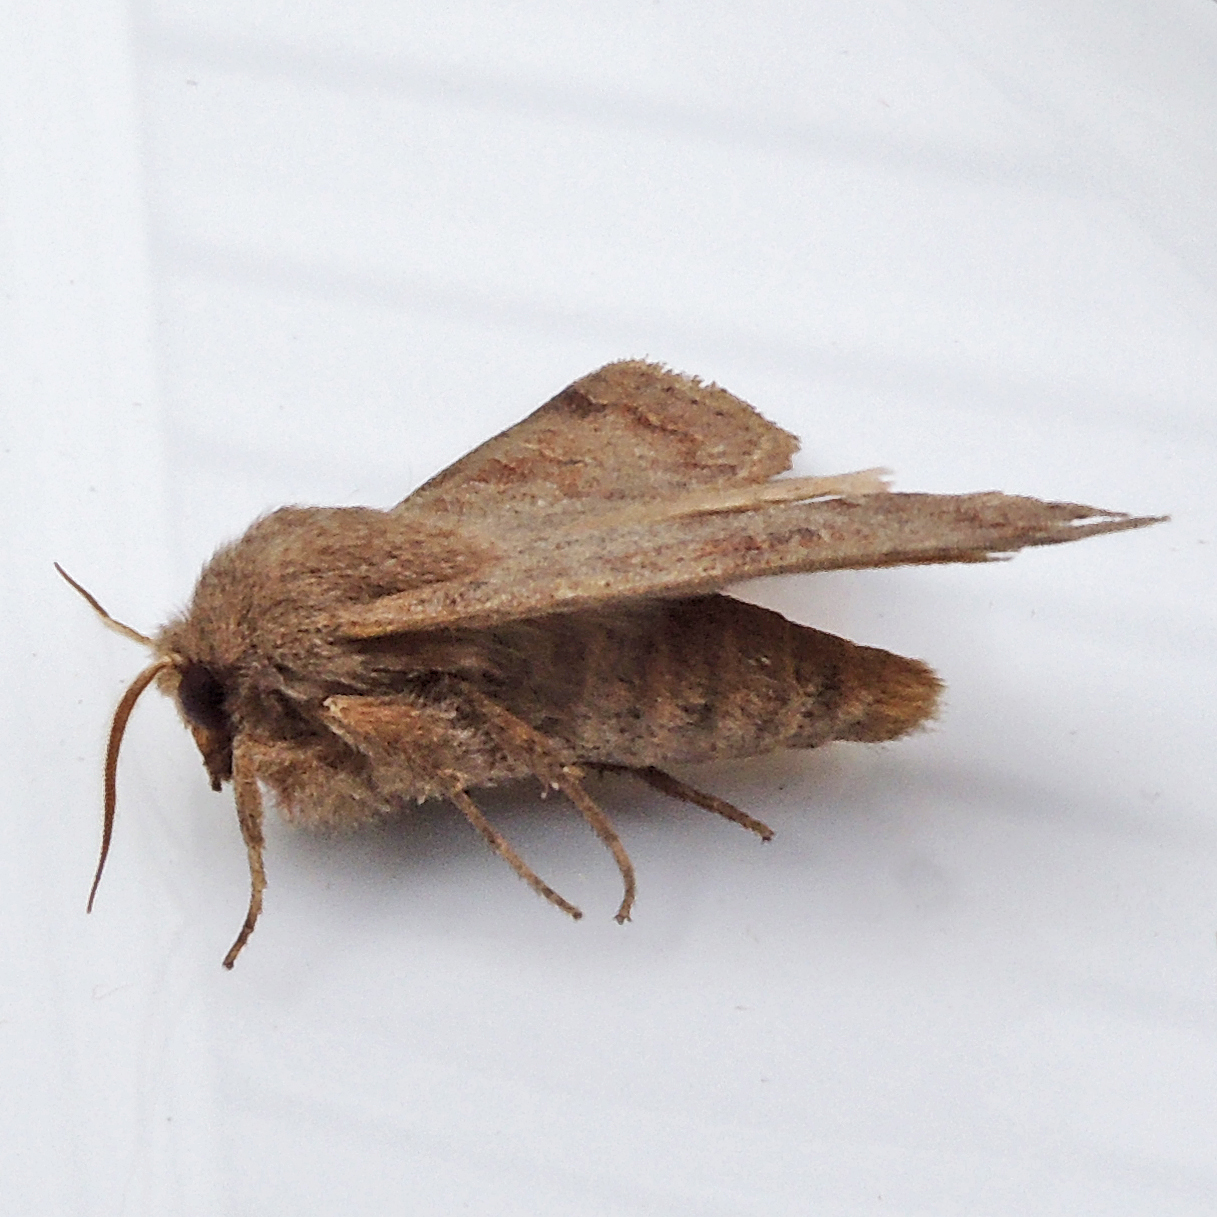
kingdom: Animalia
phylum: Arthropoda
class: Insecta
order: Lepidoptera
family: Noctuidae
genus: Orthosia
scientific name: Orthosia hibisci
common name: Green fruitworm
